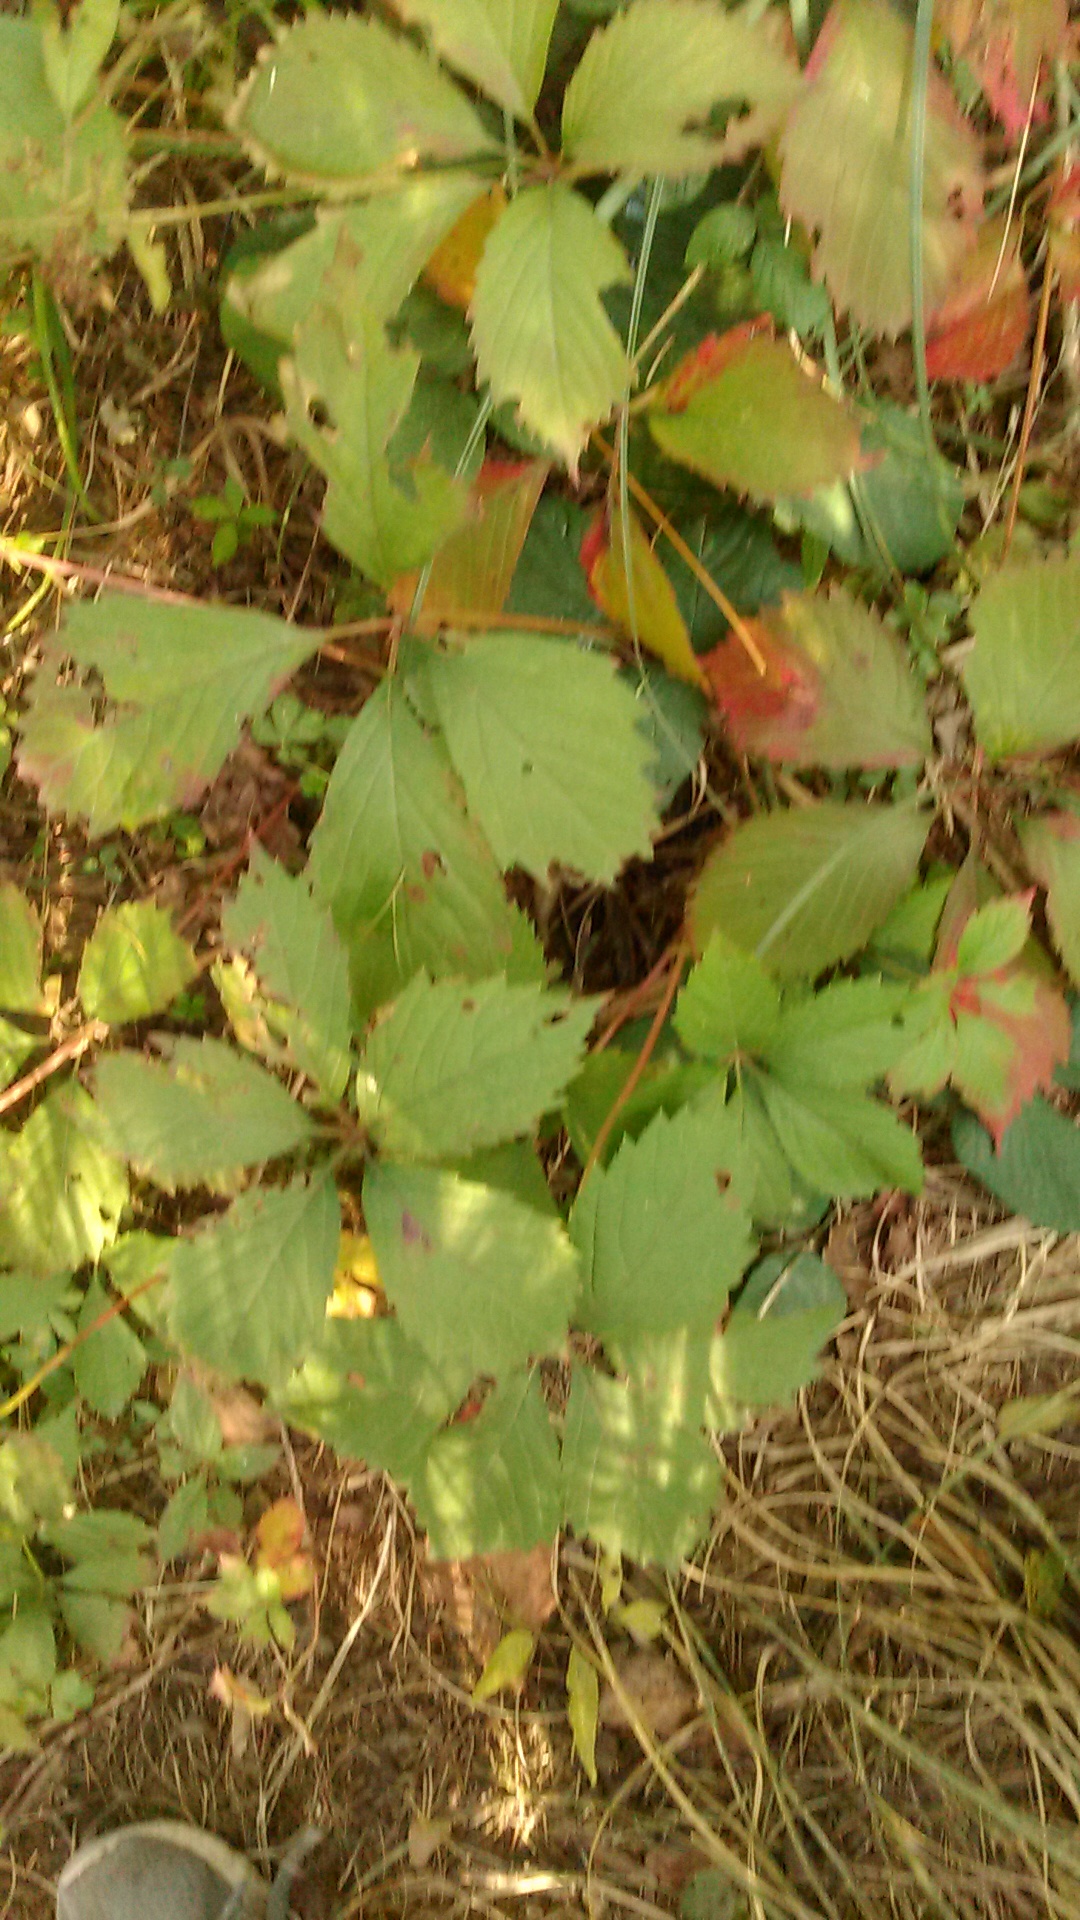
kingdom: Plantae
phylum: Tracheophyta
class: Magnoliopsida
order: Vitales
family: Vitaceae
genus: Parthenocissus
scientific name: Parthenocissus inserta
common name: False virginia-creeper
